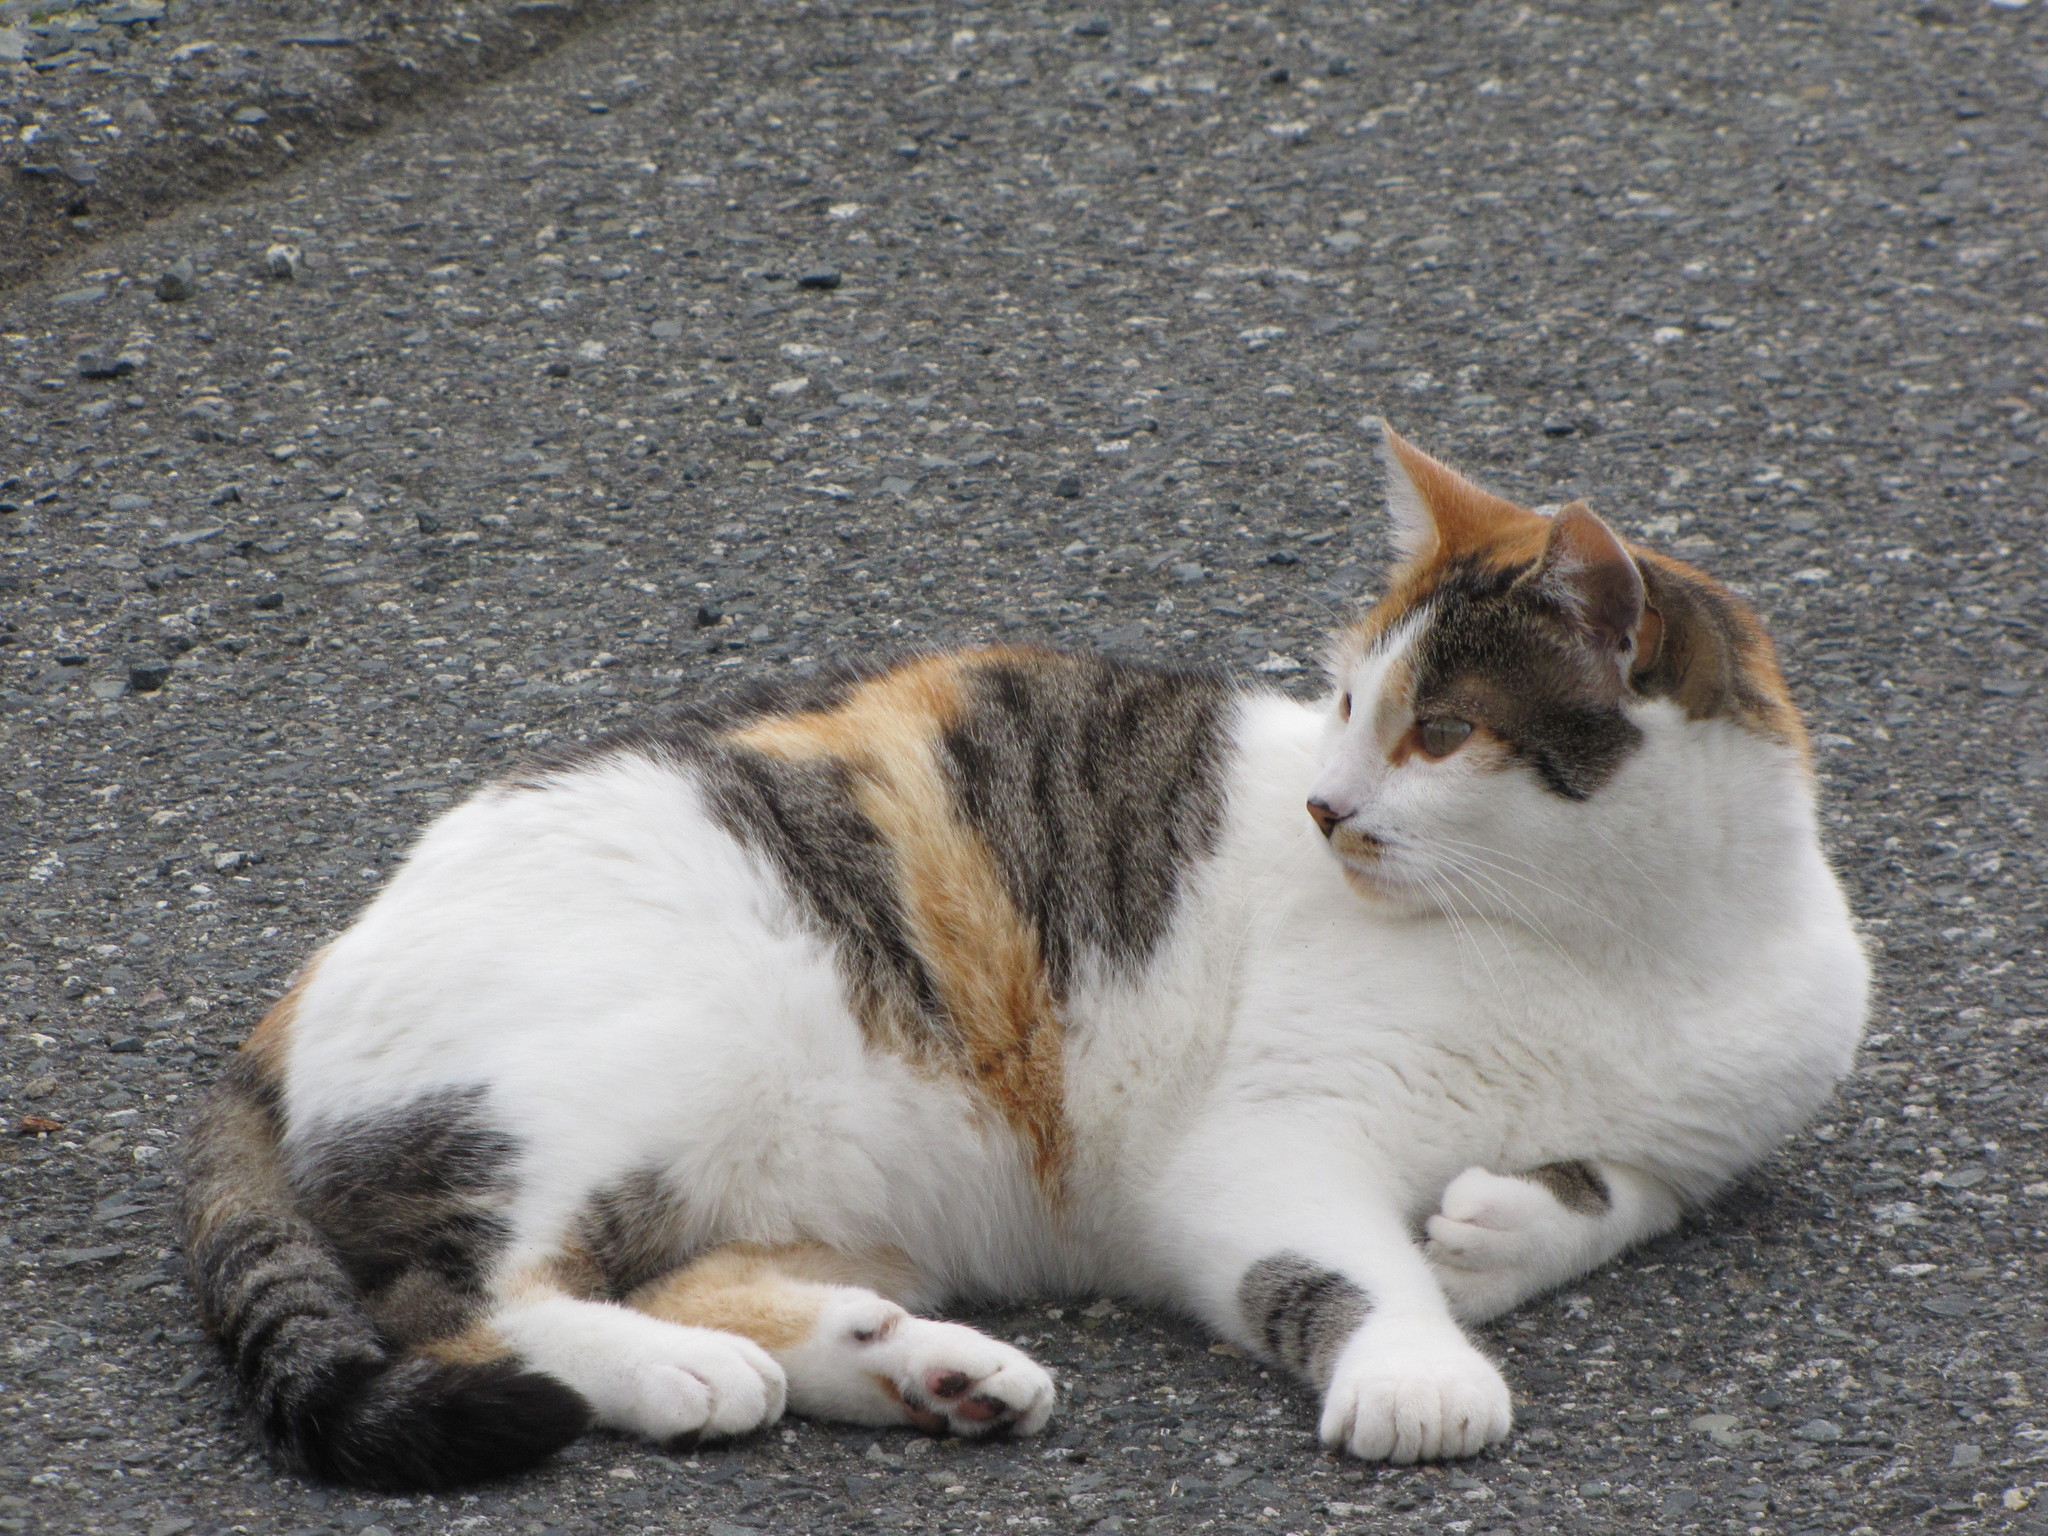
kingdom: Animalia
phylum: Chordata
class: Mammalia
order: Carnivora
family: Felidae
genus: Felis
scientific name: Felis catus
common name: Domestic cat
